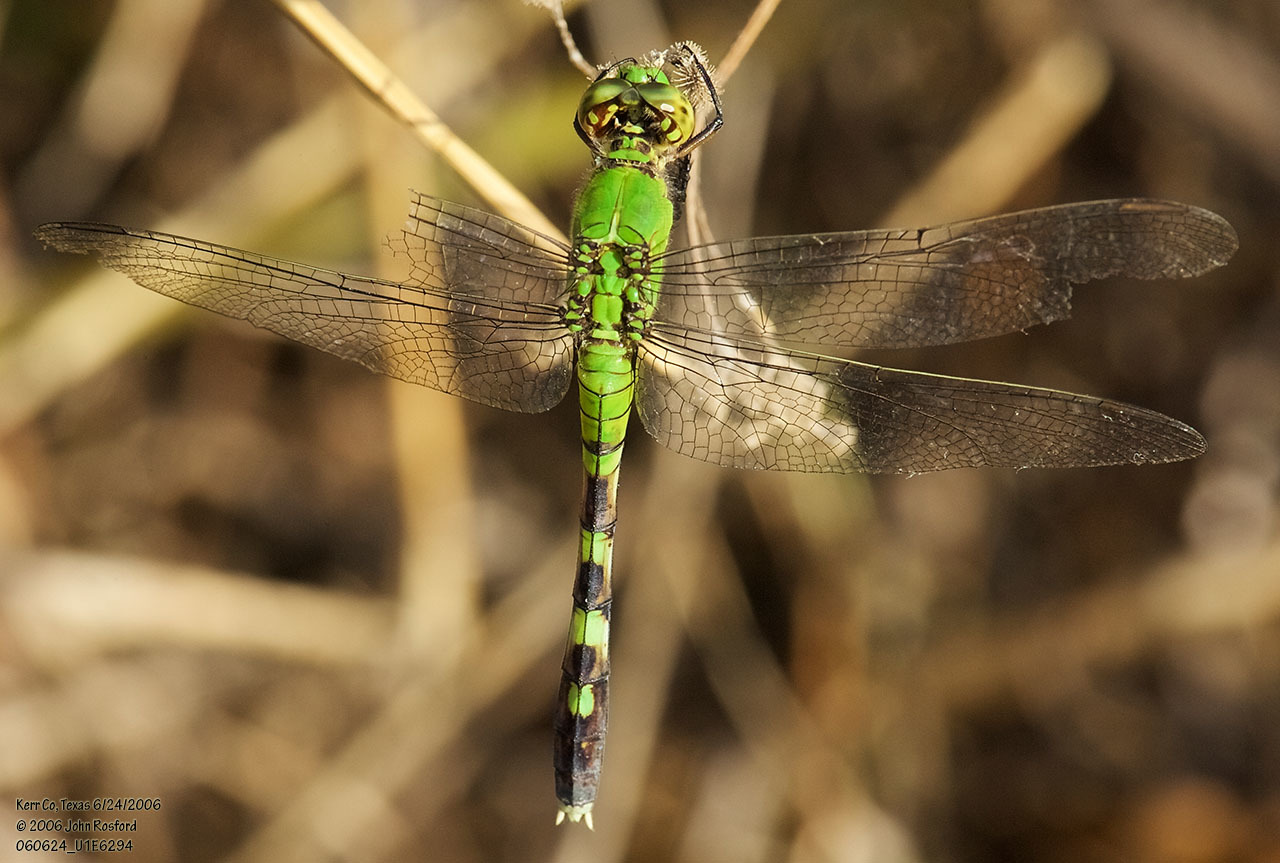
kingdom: Animalia
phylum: Arthropoda
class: Insecta
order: Odonata
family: Libellulidae
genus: Erythemis
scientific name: Erythemis simplicicollis
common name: Eastern pondhawk
